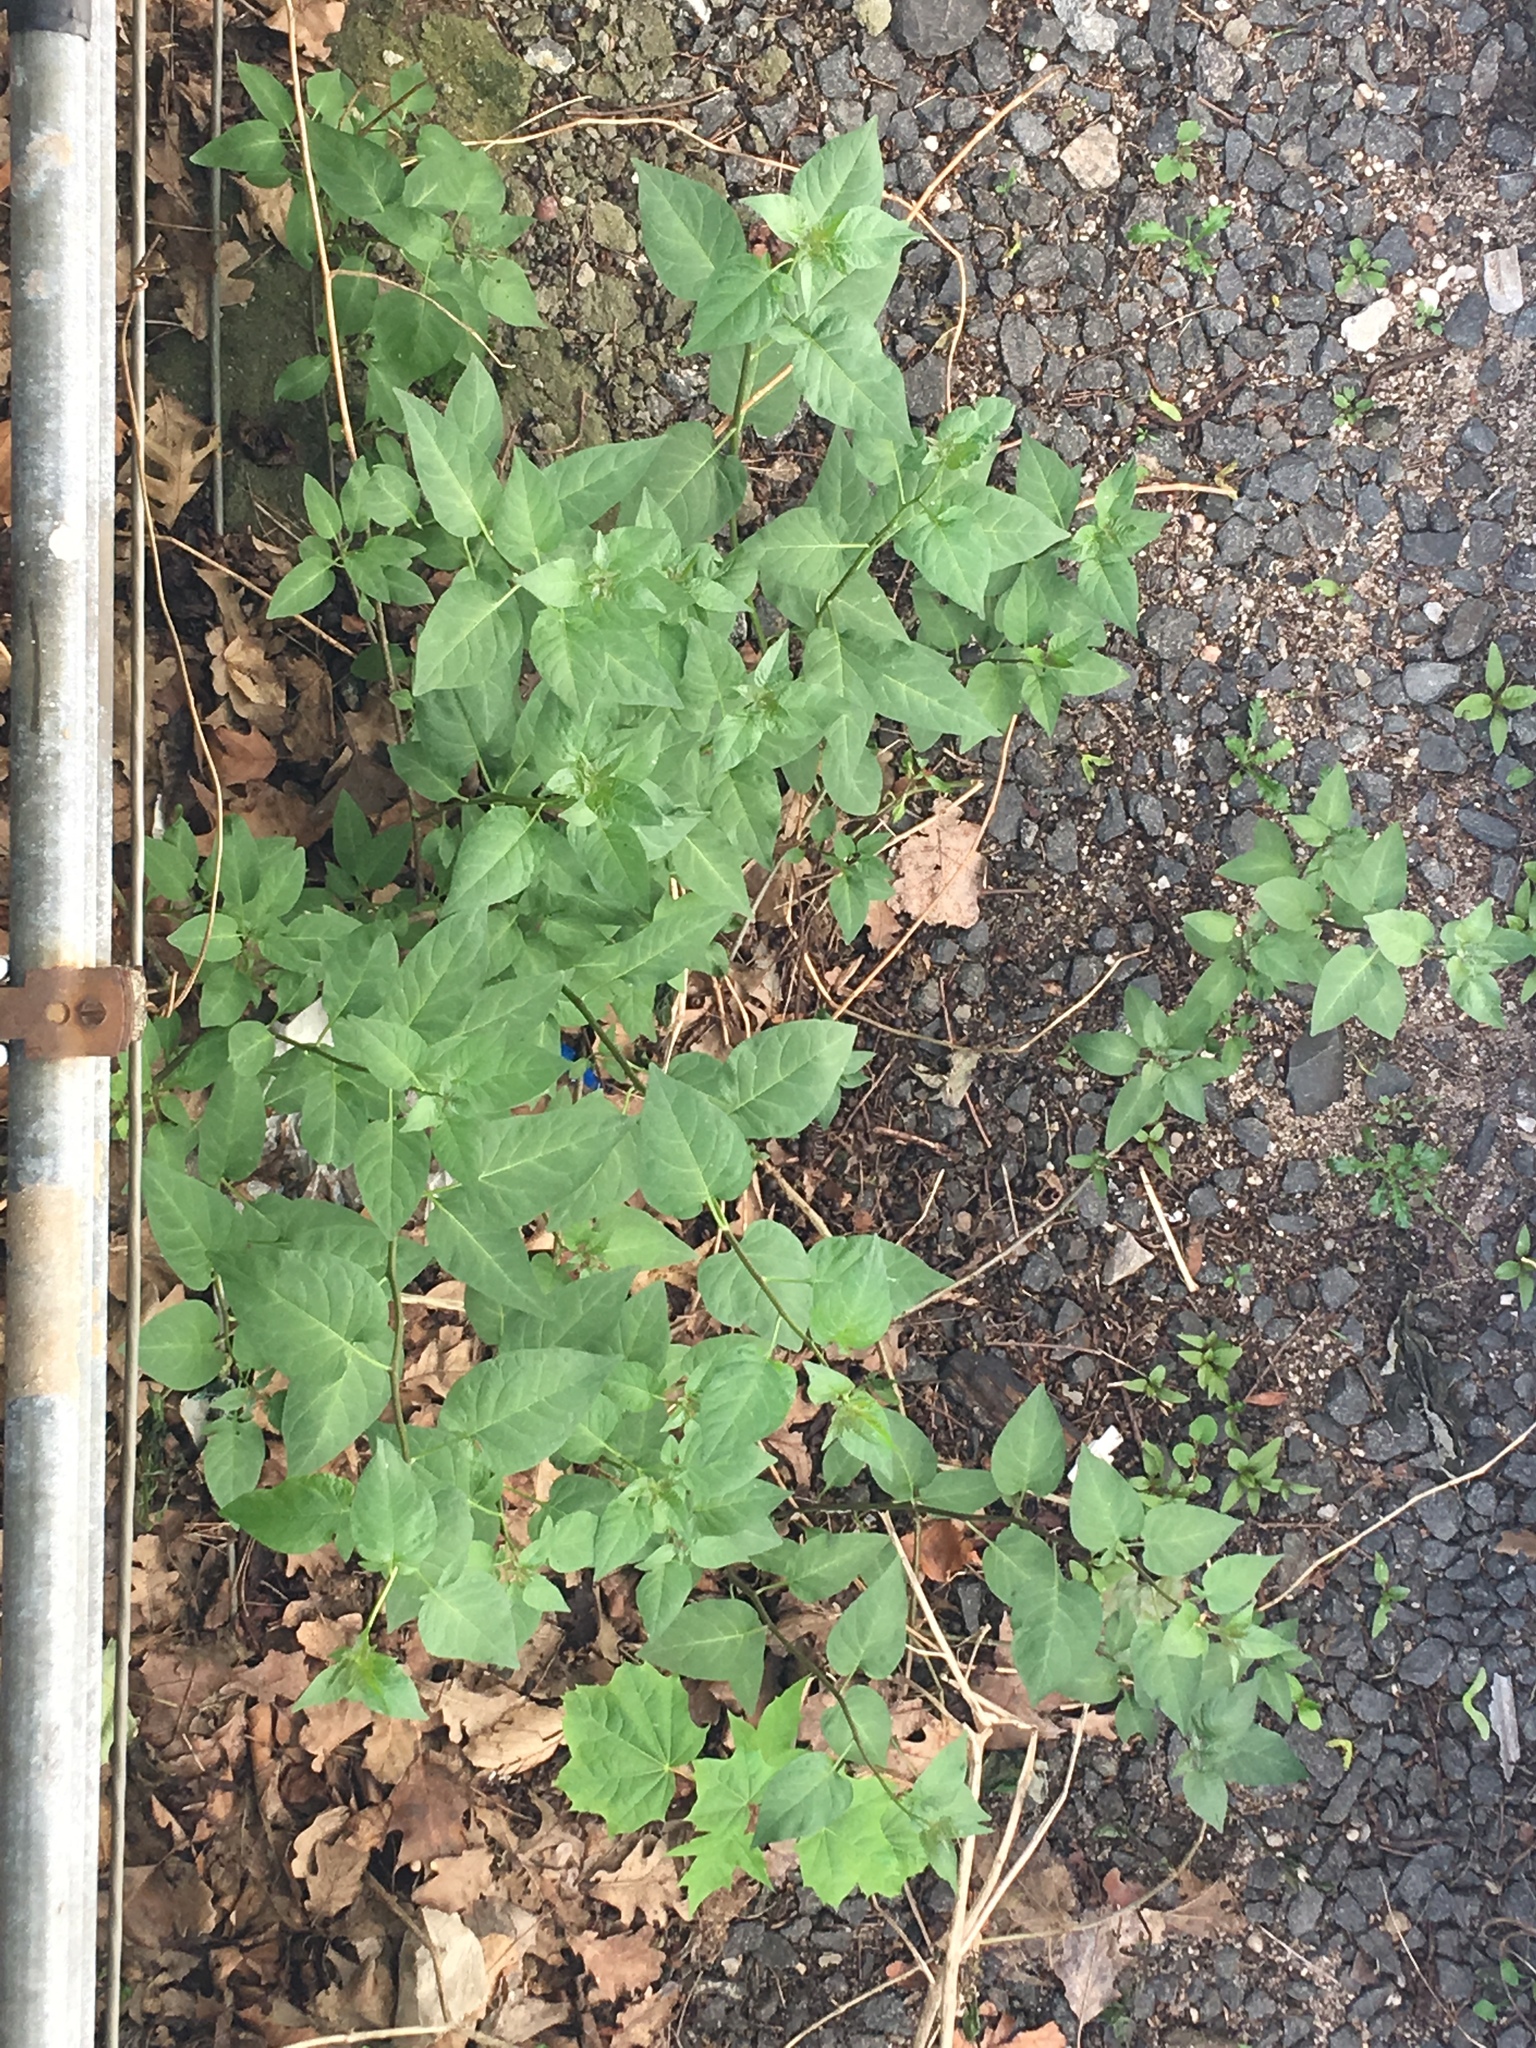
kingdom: Plantae
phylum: Tracheophyta
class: Magnoliopsida
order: Solanales
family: Solanaceae
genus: Solanum
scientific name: Solanum dulcamara
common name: Climbing nightshade
